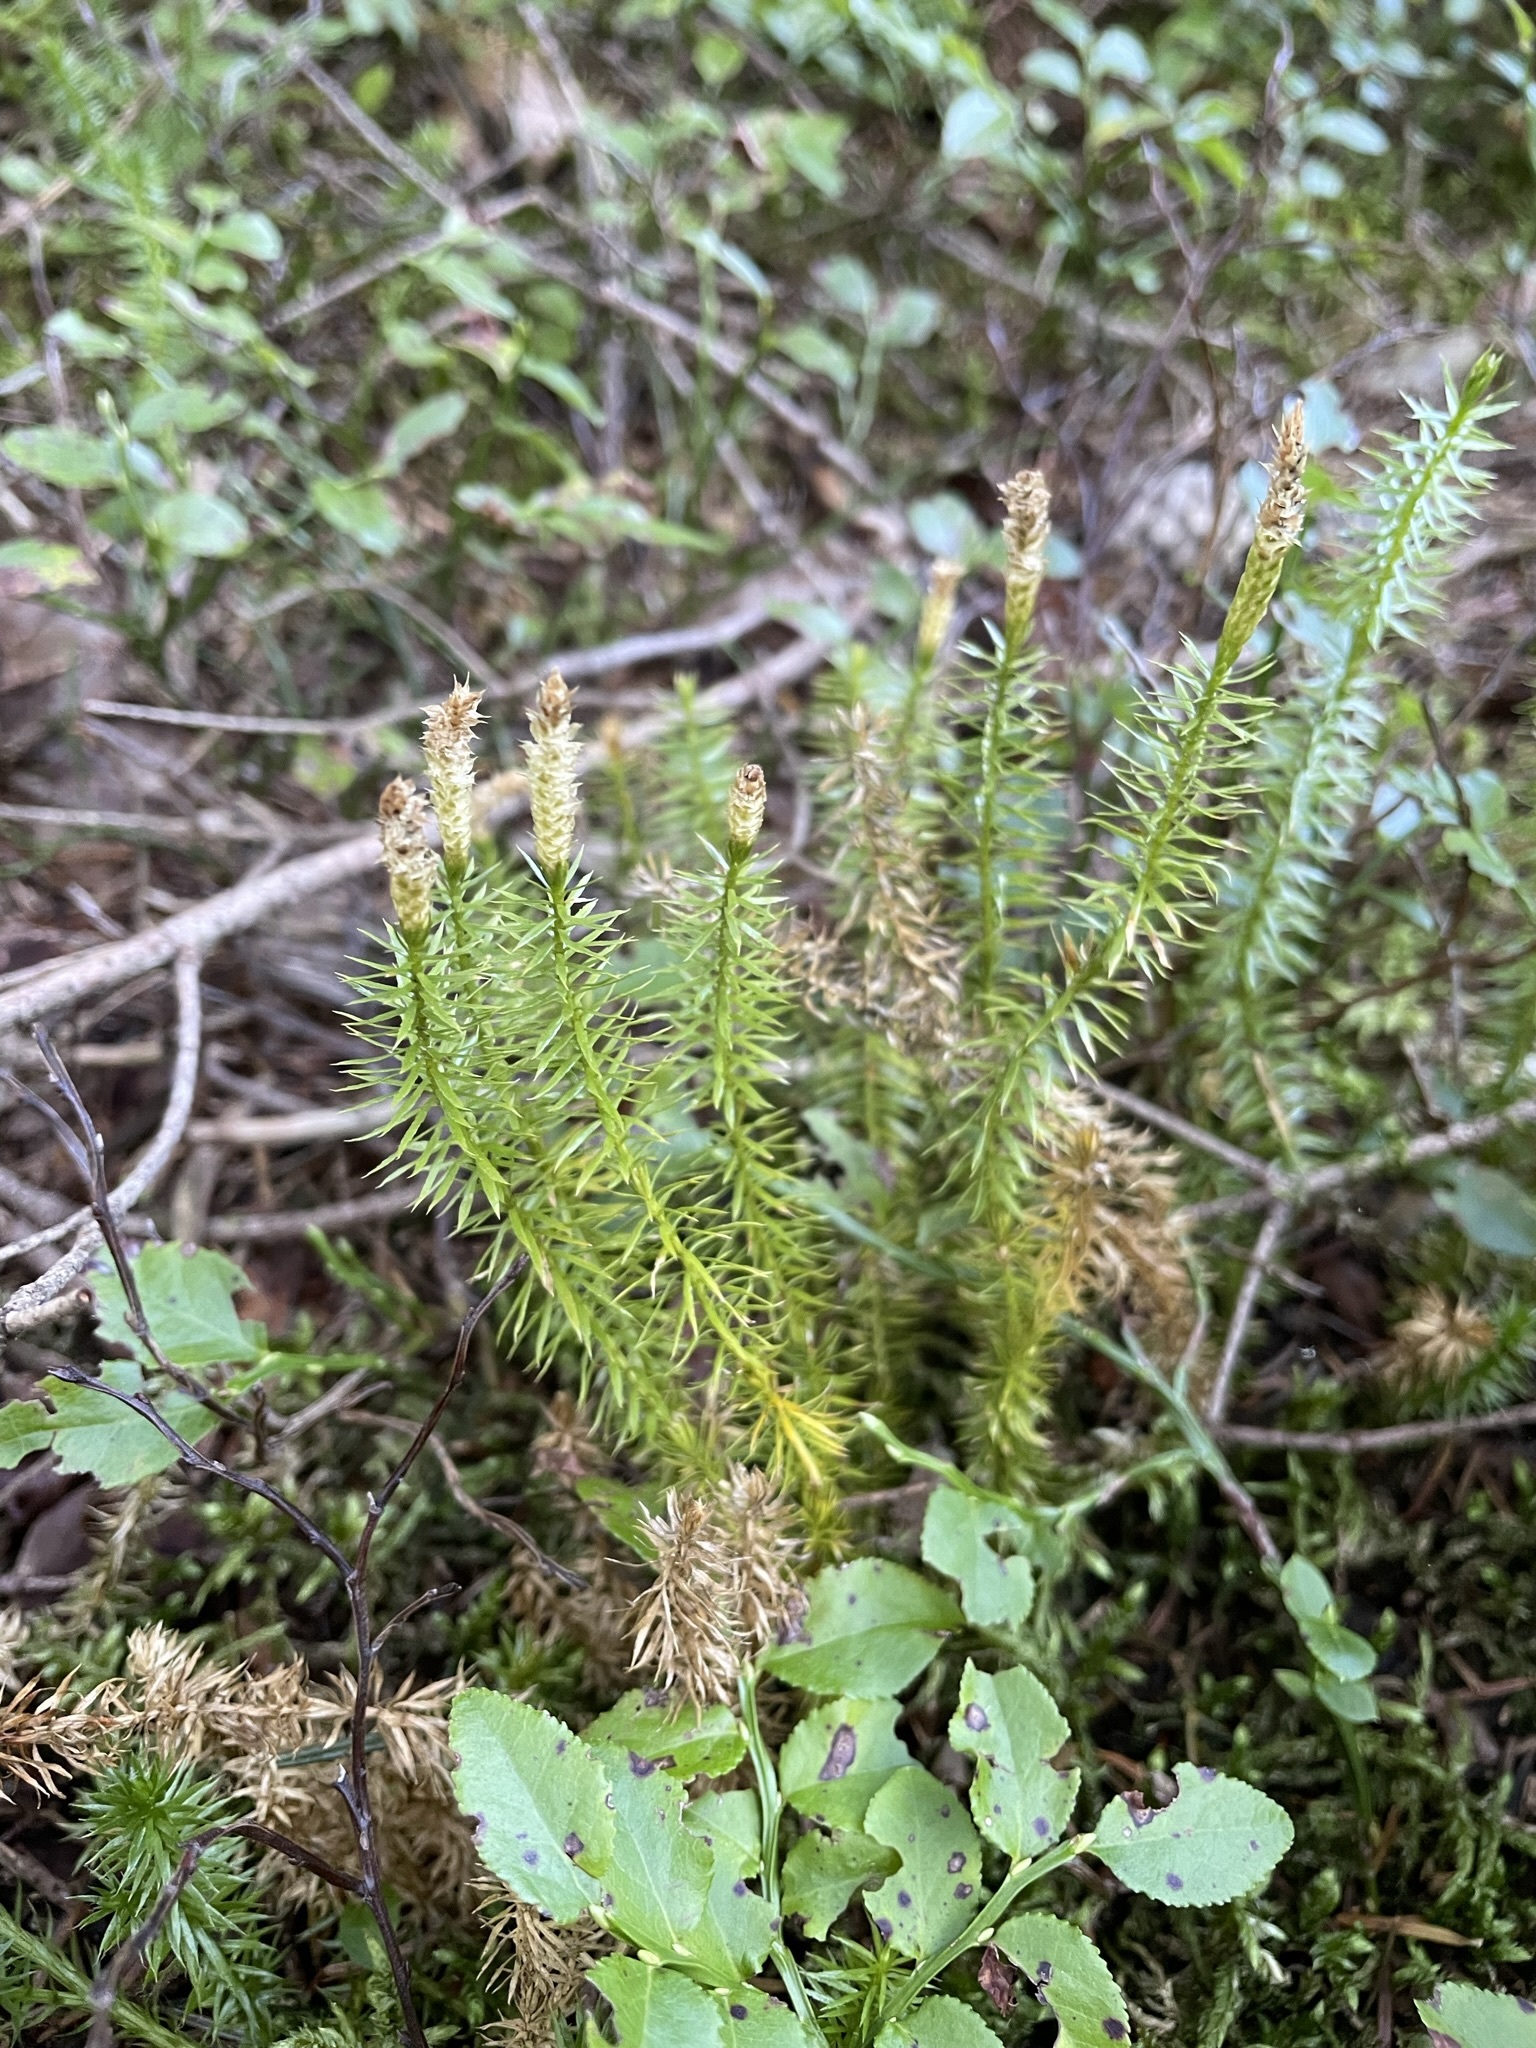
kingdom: Plantae
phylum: Tracheophyta
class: Lycopodiopsida
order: Lycopodiales
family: Lycopodiaceae
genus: Spinulum
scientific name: Spinulum annotinum
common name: Interrupted club-moss
